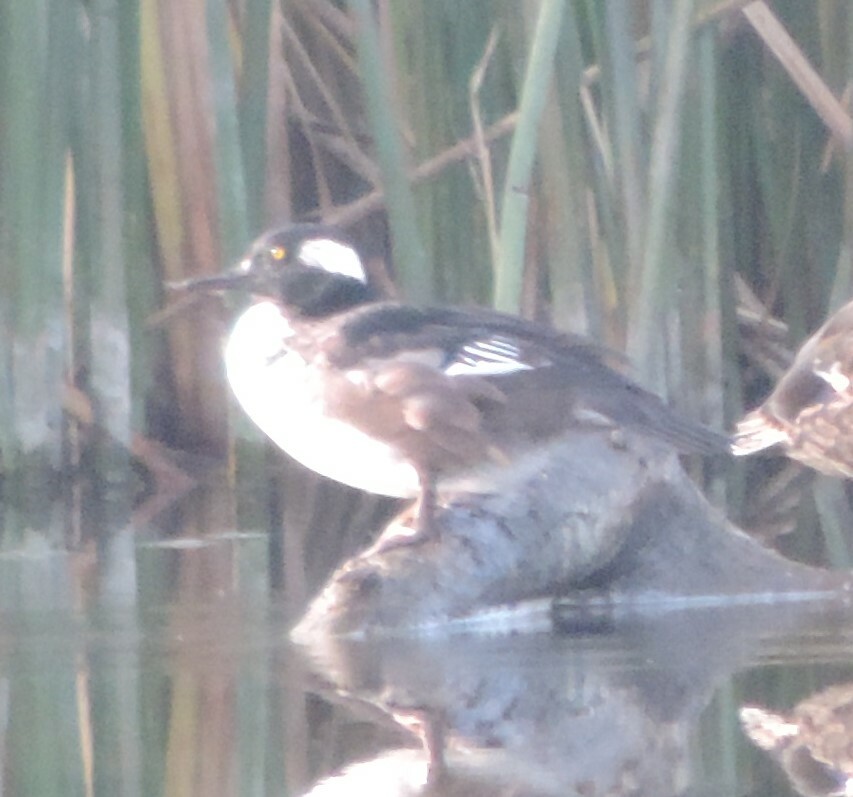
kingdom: Animalia
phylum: Chordata
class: Aves
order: Anseriformes
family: Anatidae
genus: Lophodytes
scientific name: Lophodytes cucullatus
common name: Hooded merganser
